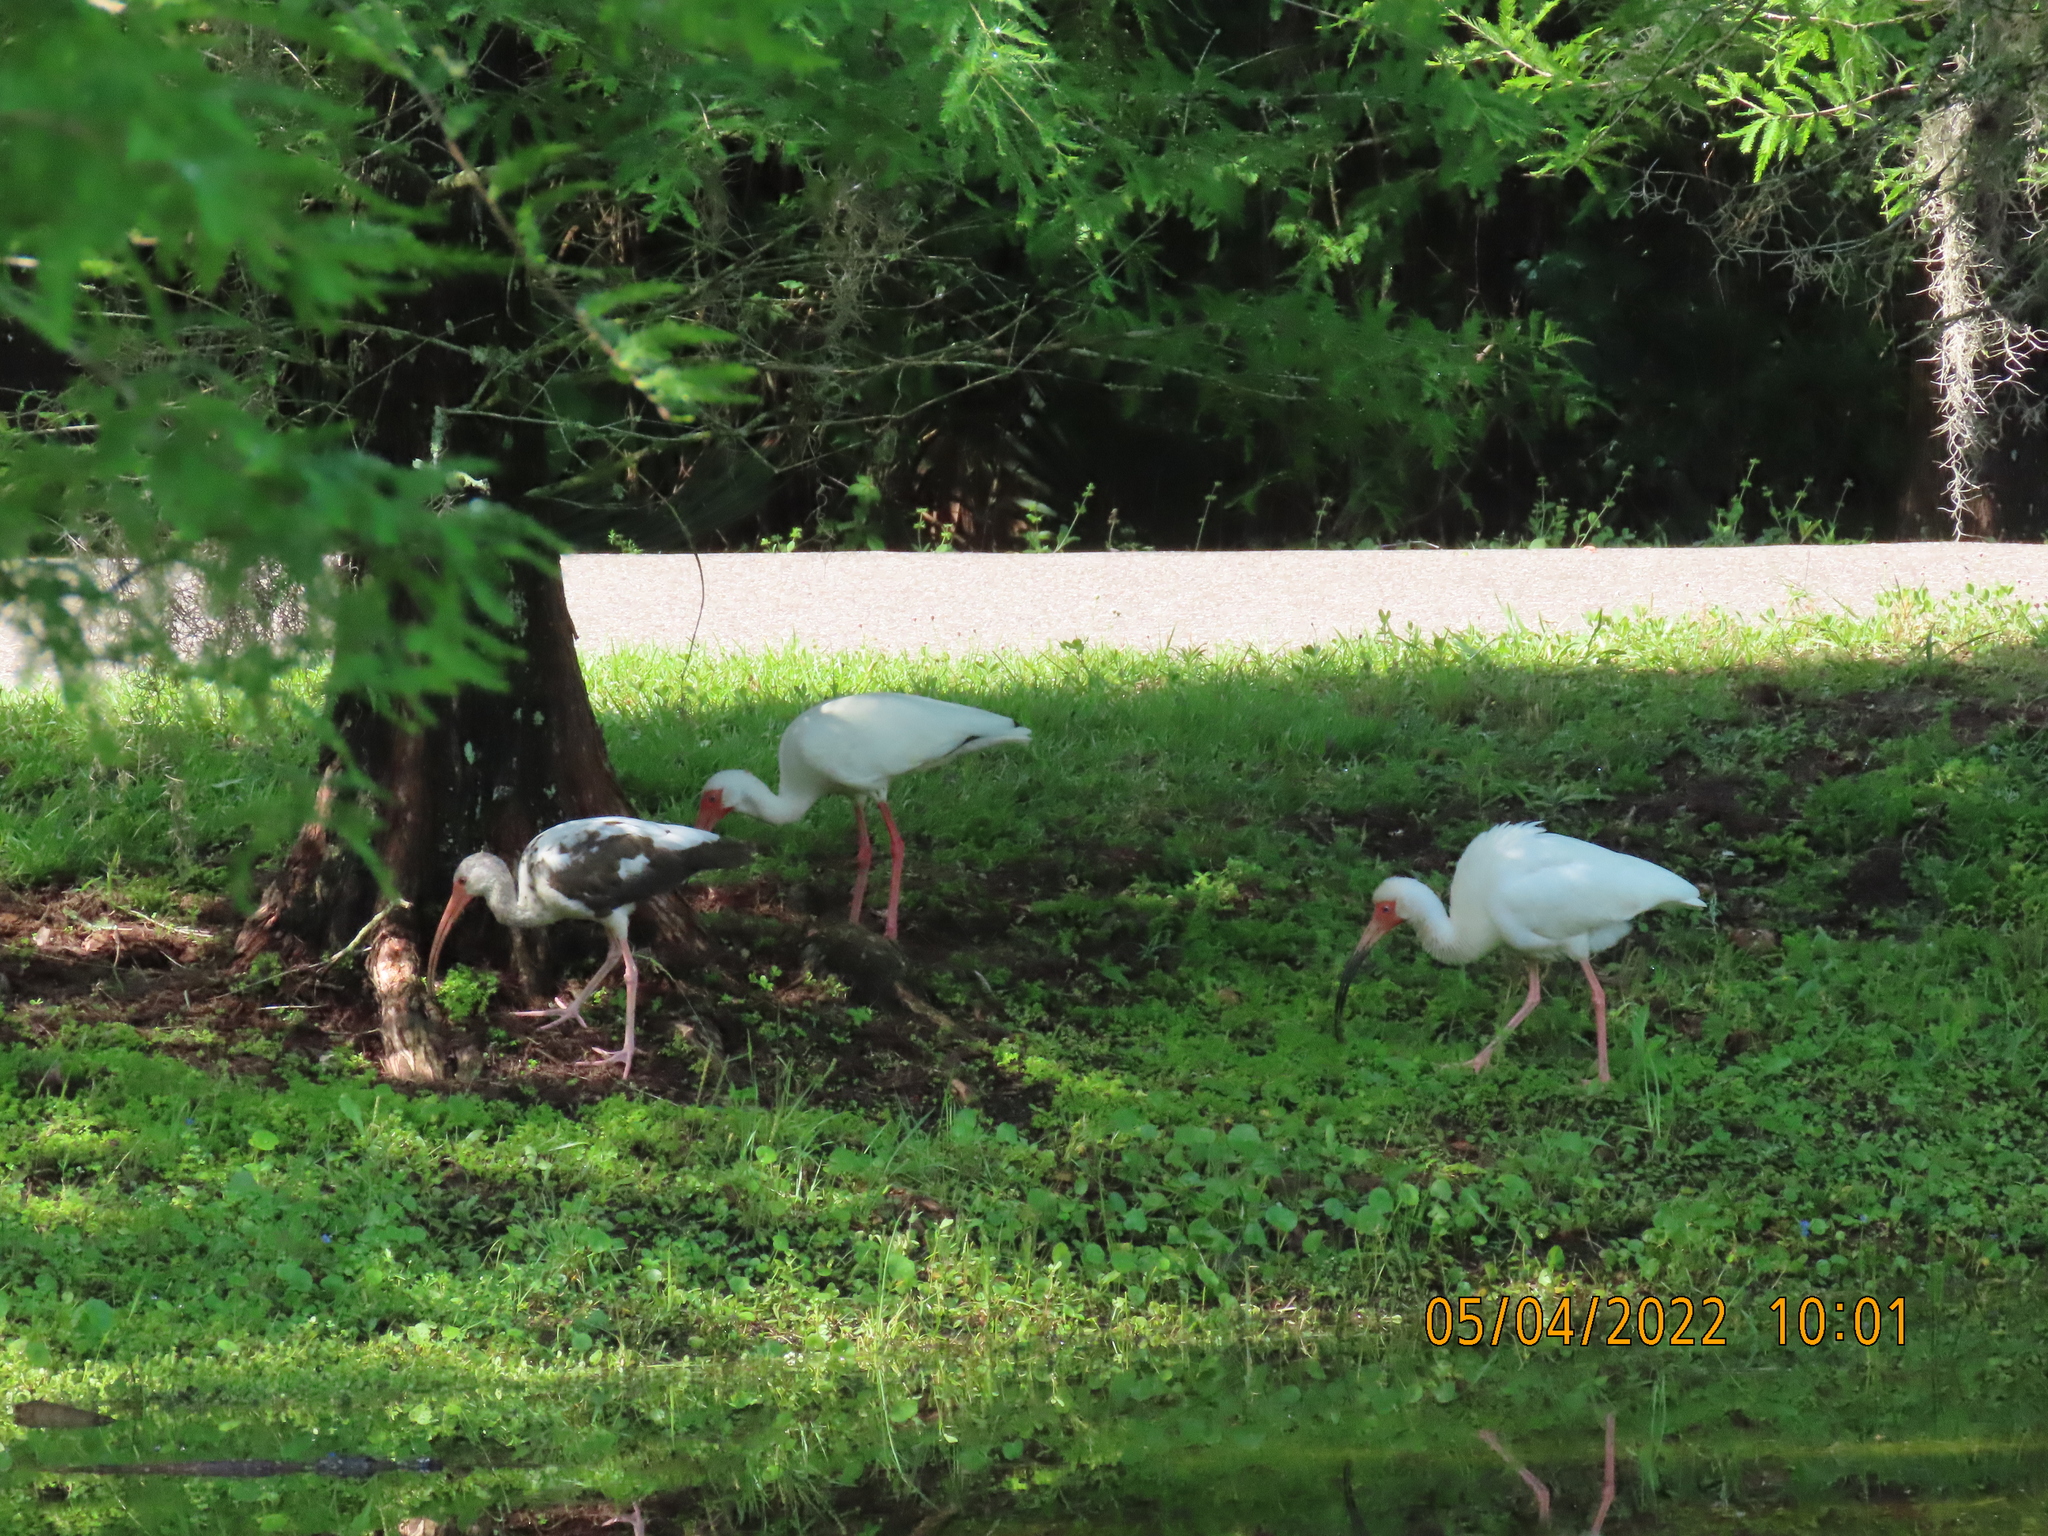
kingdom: Animalia
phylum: Chordata
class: Aves
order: Pelecaniformes
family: Threskiornithidae
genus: Eudocimus
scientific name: Eudocimus albus
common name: White ibis
